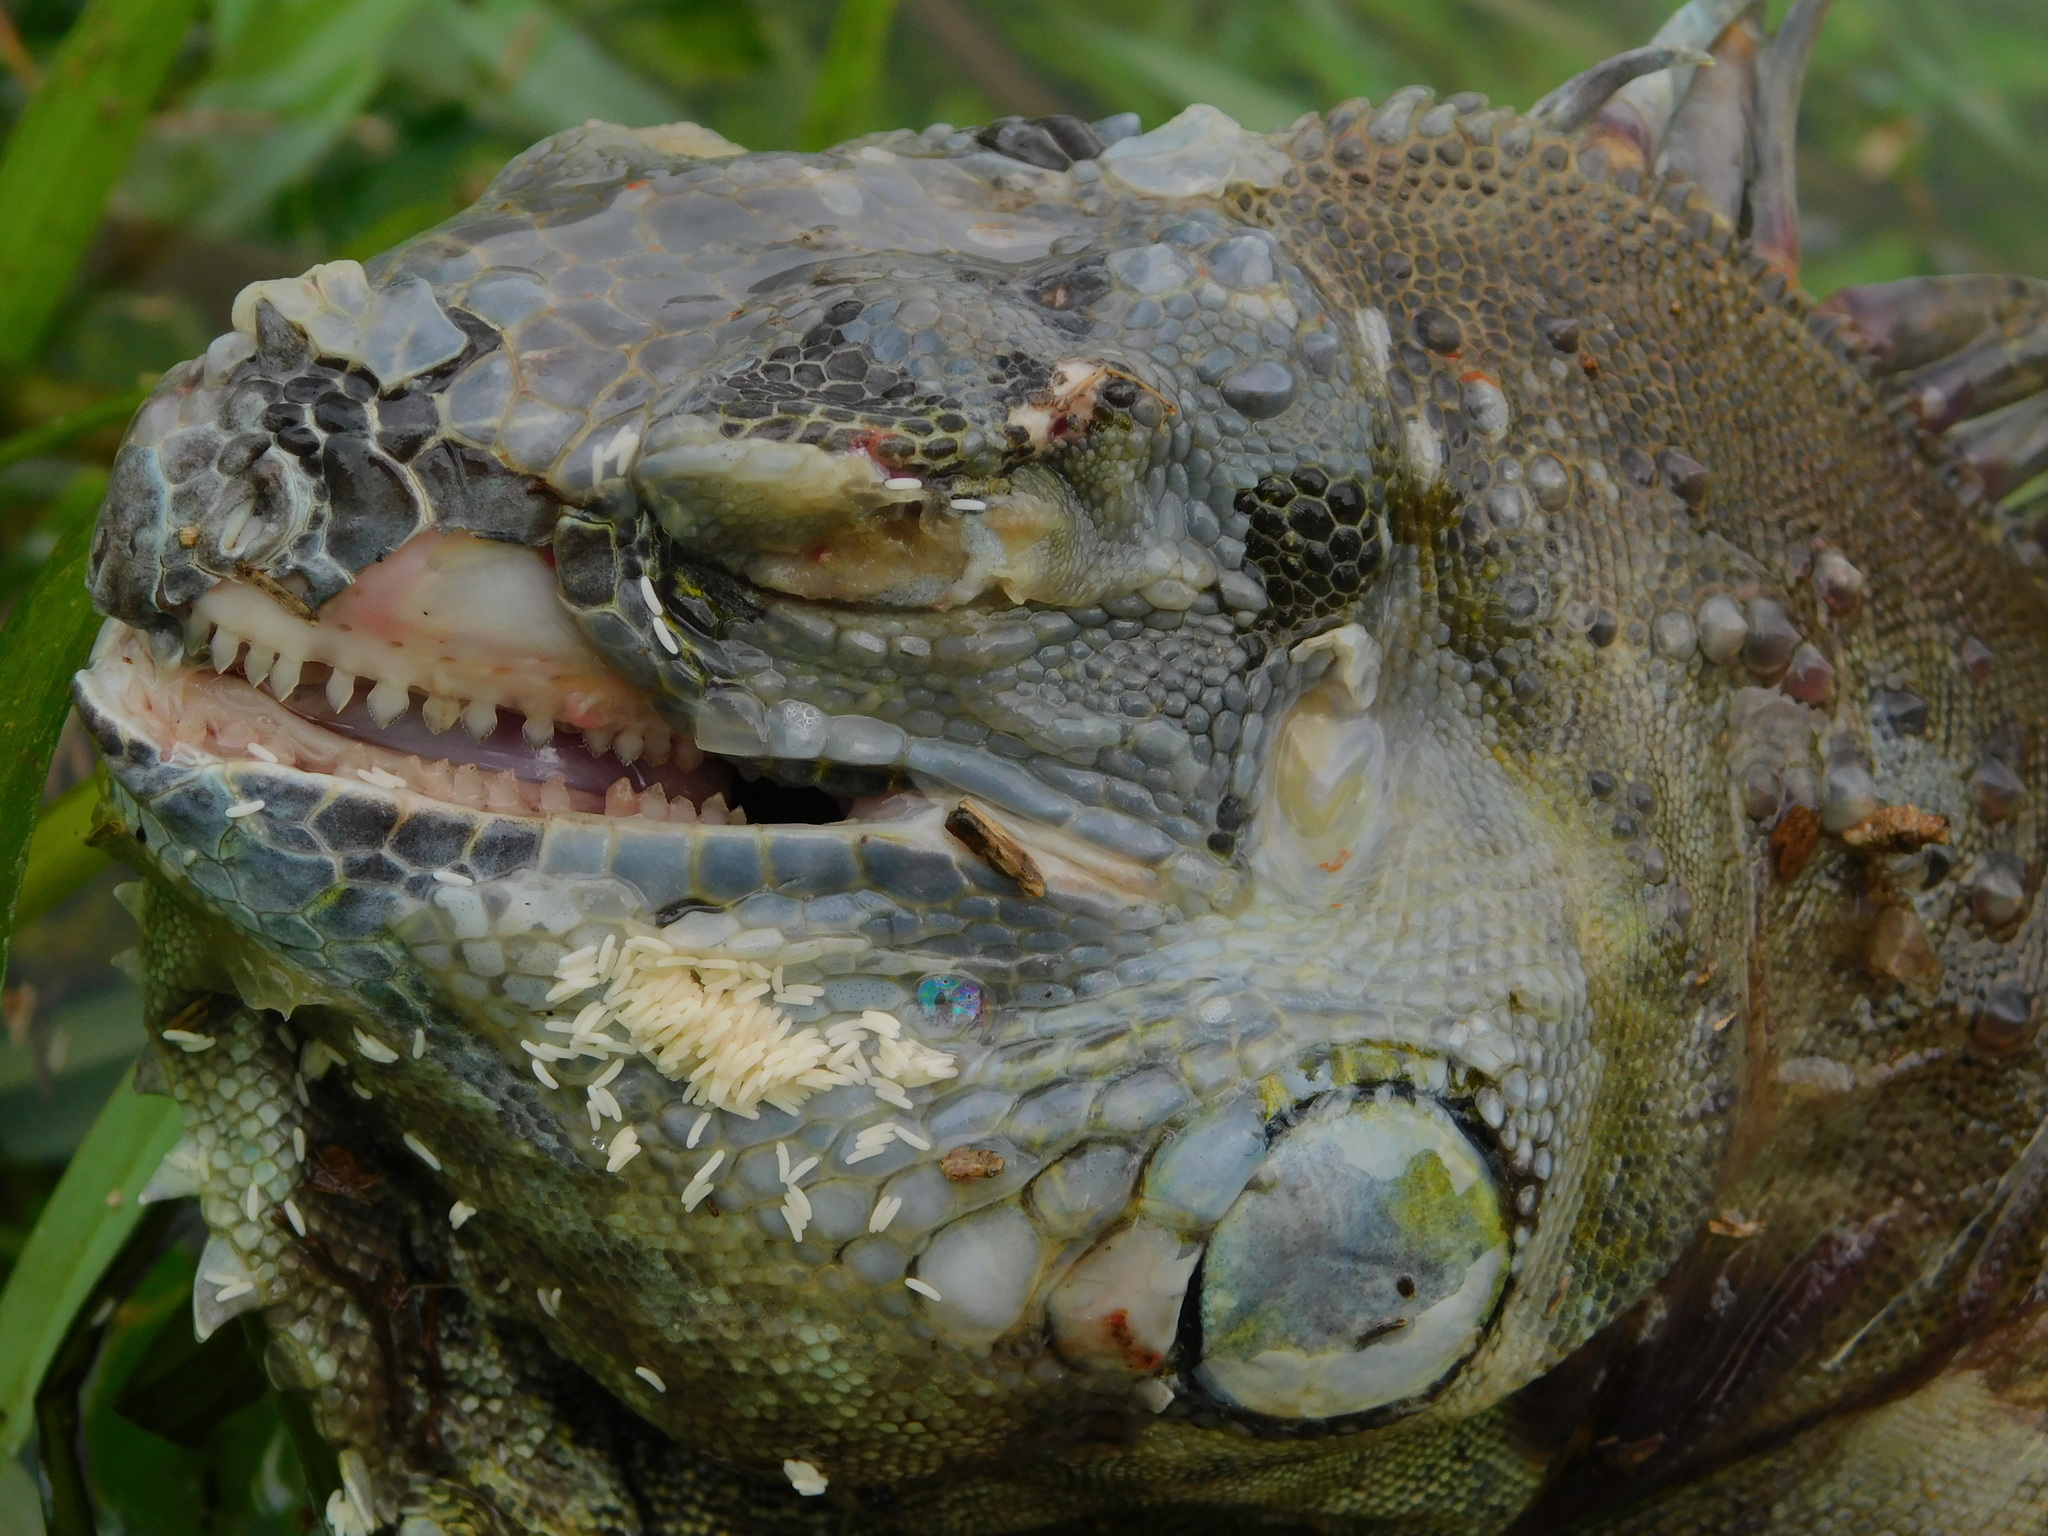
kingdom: Animalia
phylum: Chordata
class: Squamata
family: Iguanidae
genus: Iguana
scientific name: Iguana iguana
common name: Green iguana
